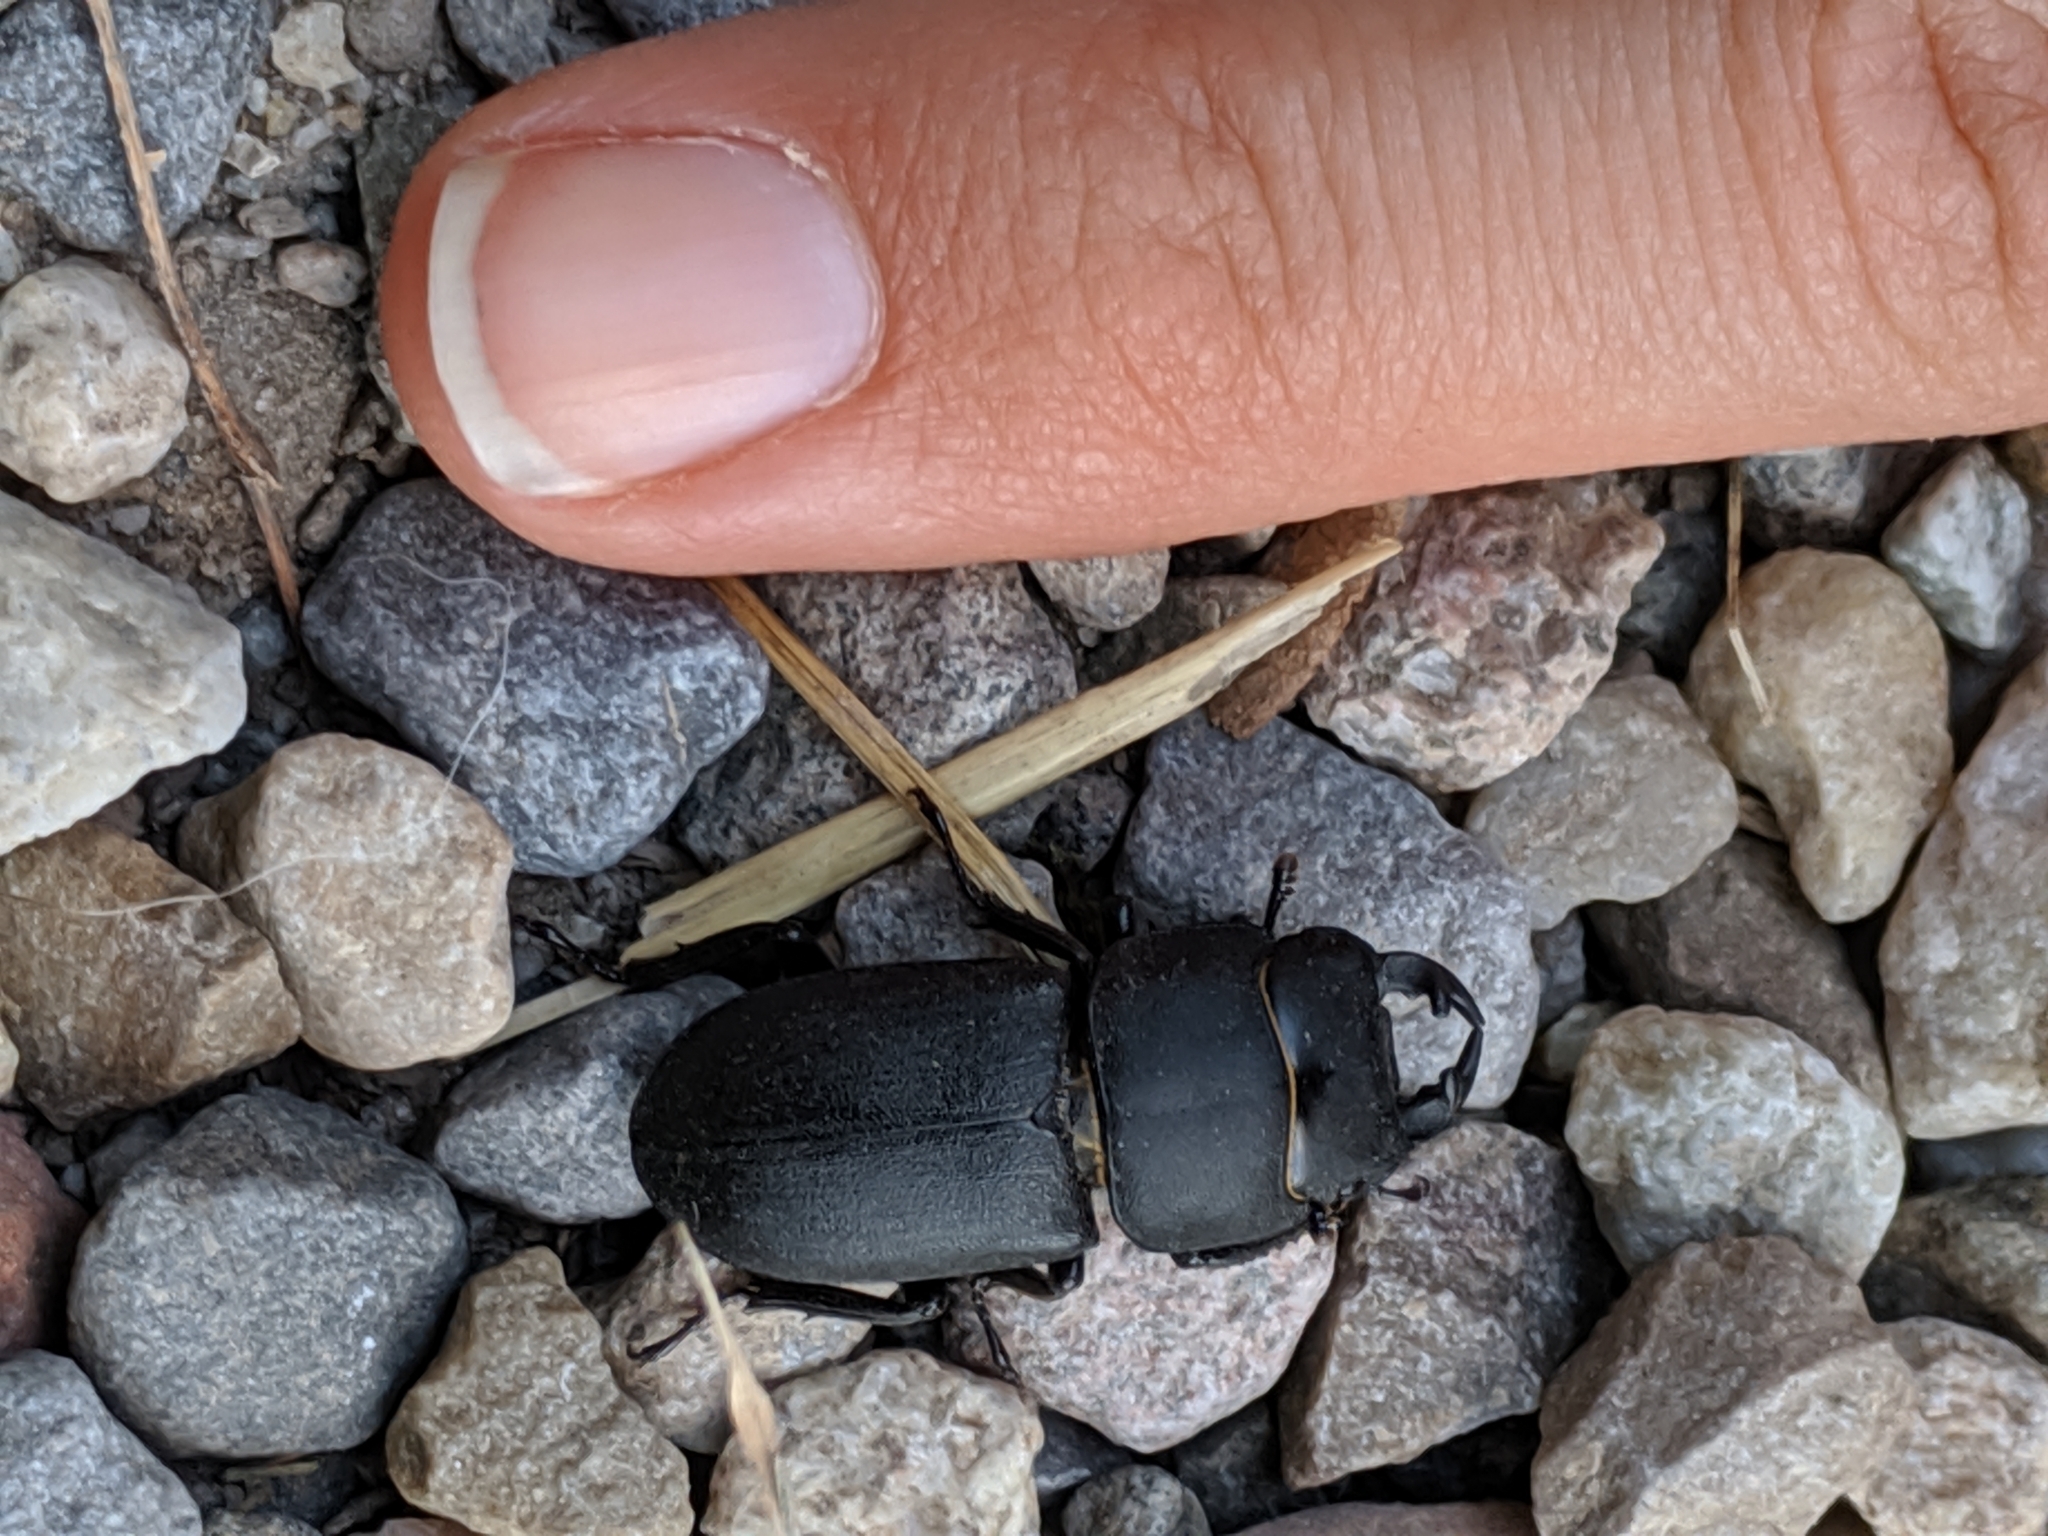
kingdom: Animalia
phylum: Arthropoda
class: Insecta
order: Coleoptera
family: Lucanidae
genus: Dorcus
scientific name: Dorcus parallelipipedus
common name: Lesser stag beetle
